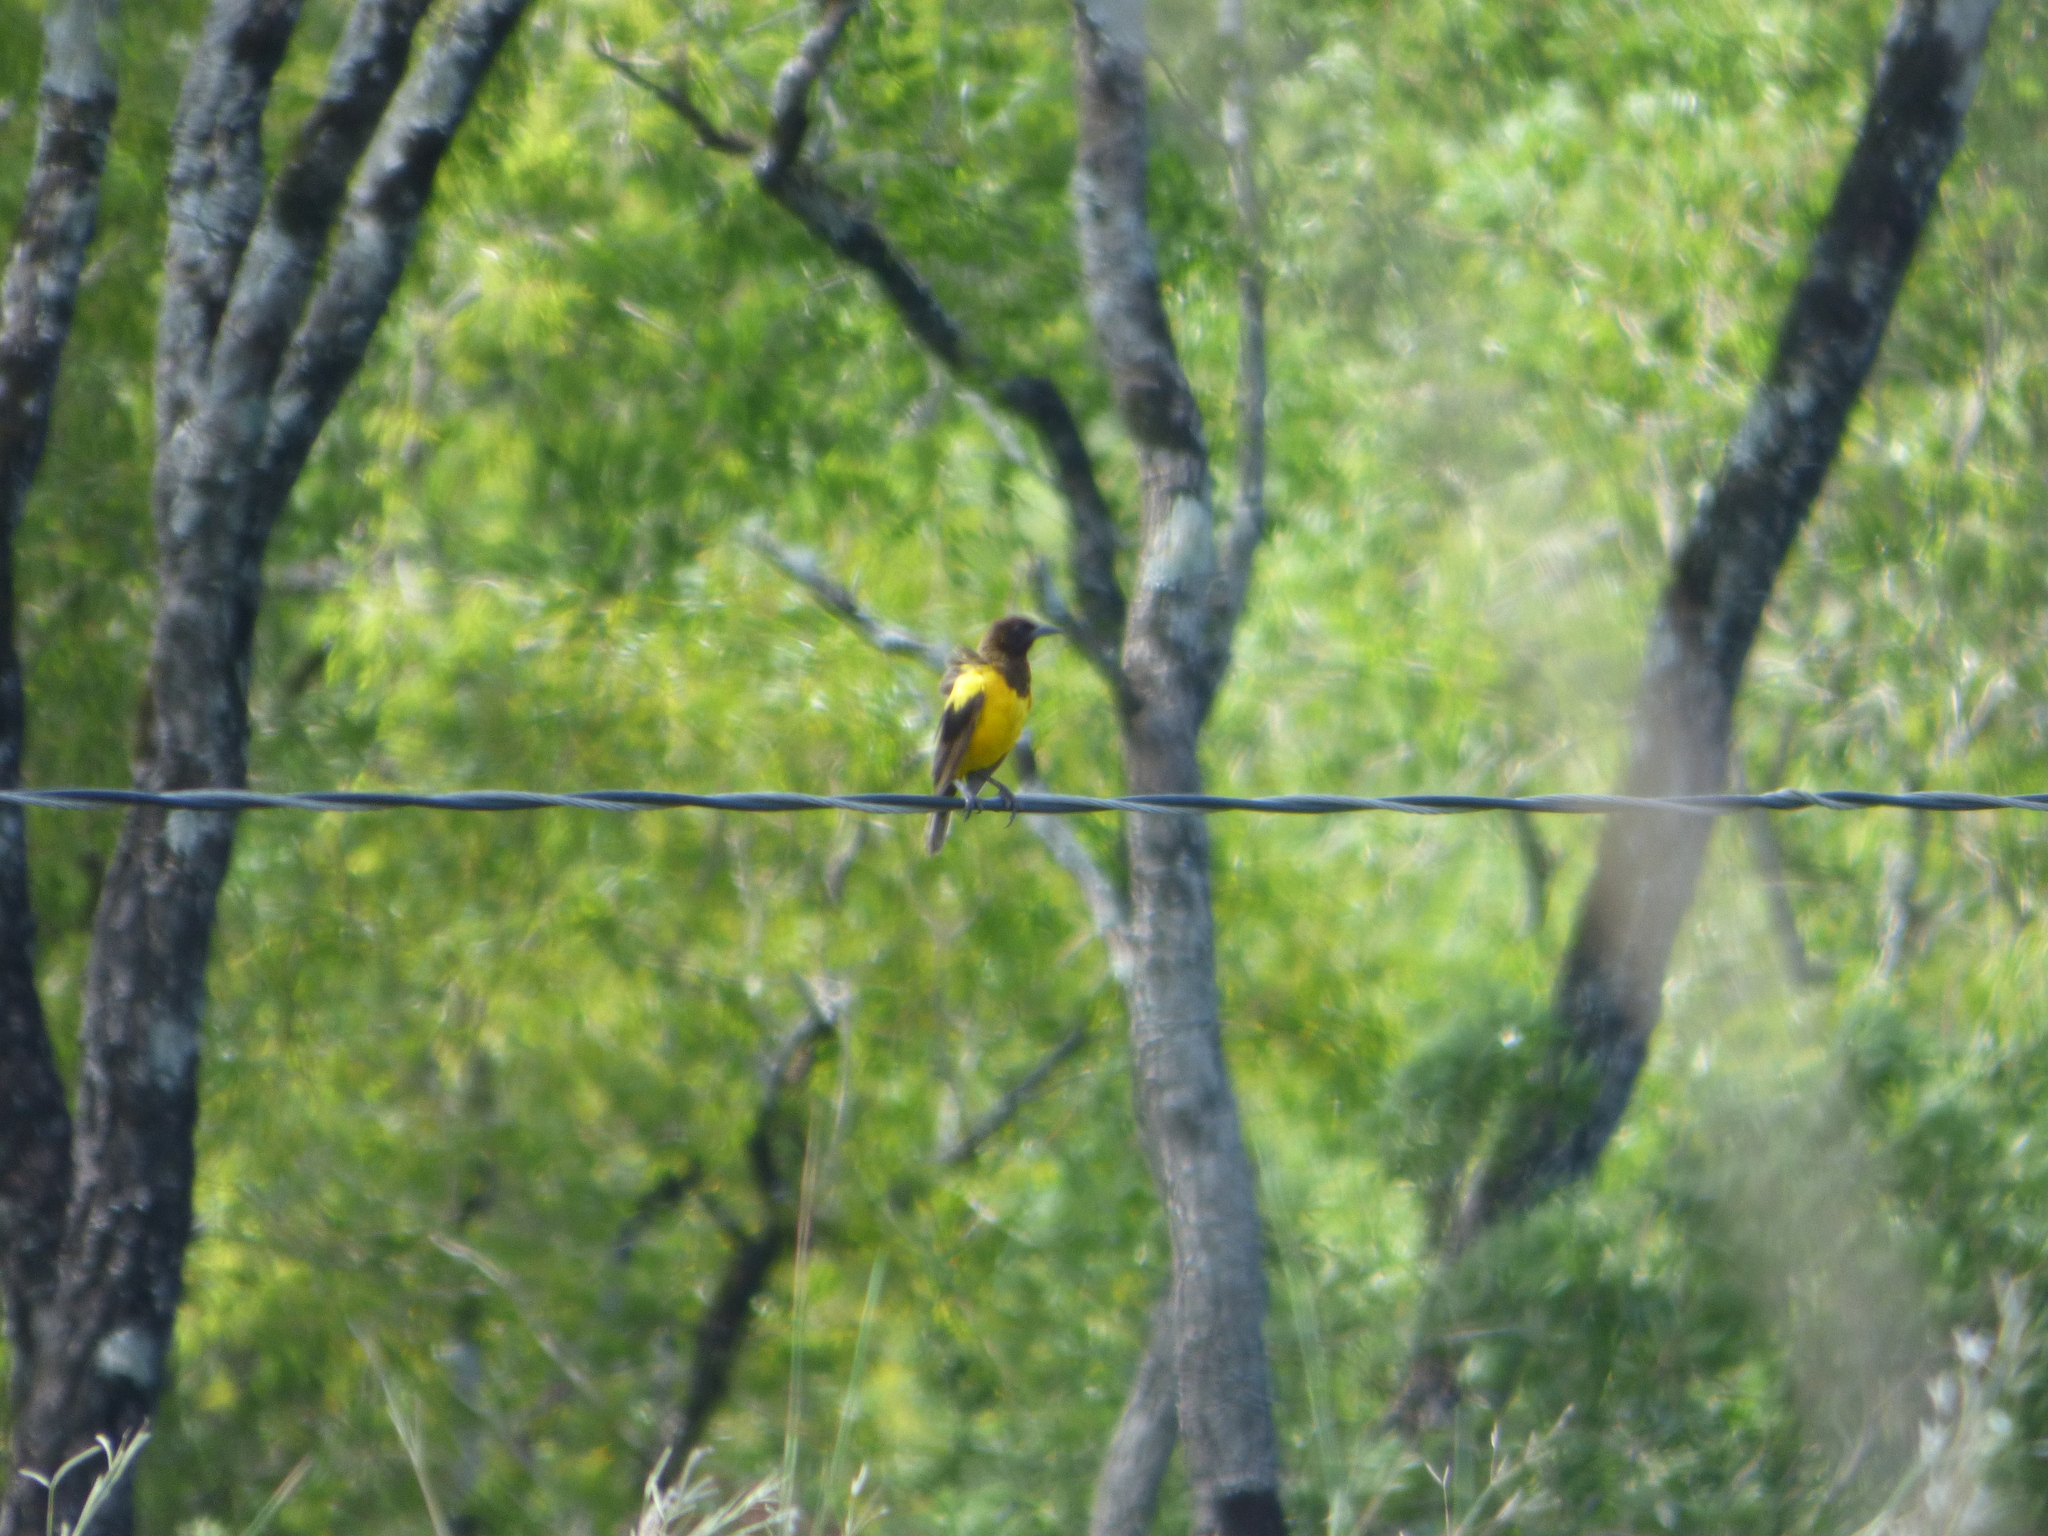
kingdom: Animalia
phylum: Chordata
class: Aves
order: Passeriformes
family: Icteridae
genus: Pseudoleistes
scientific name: Pseudoleistes guirahuro
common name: Yellow-rumped marshbird
